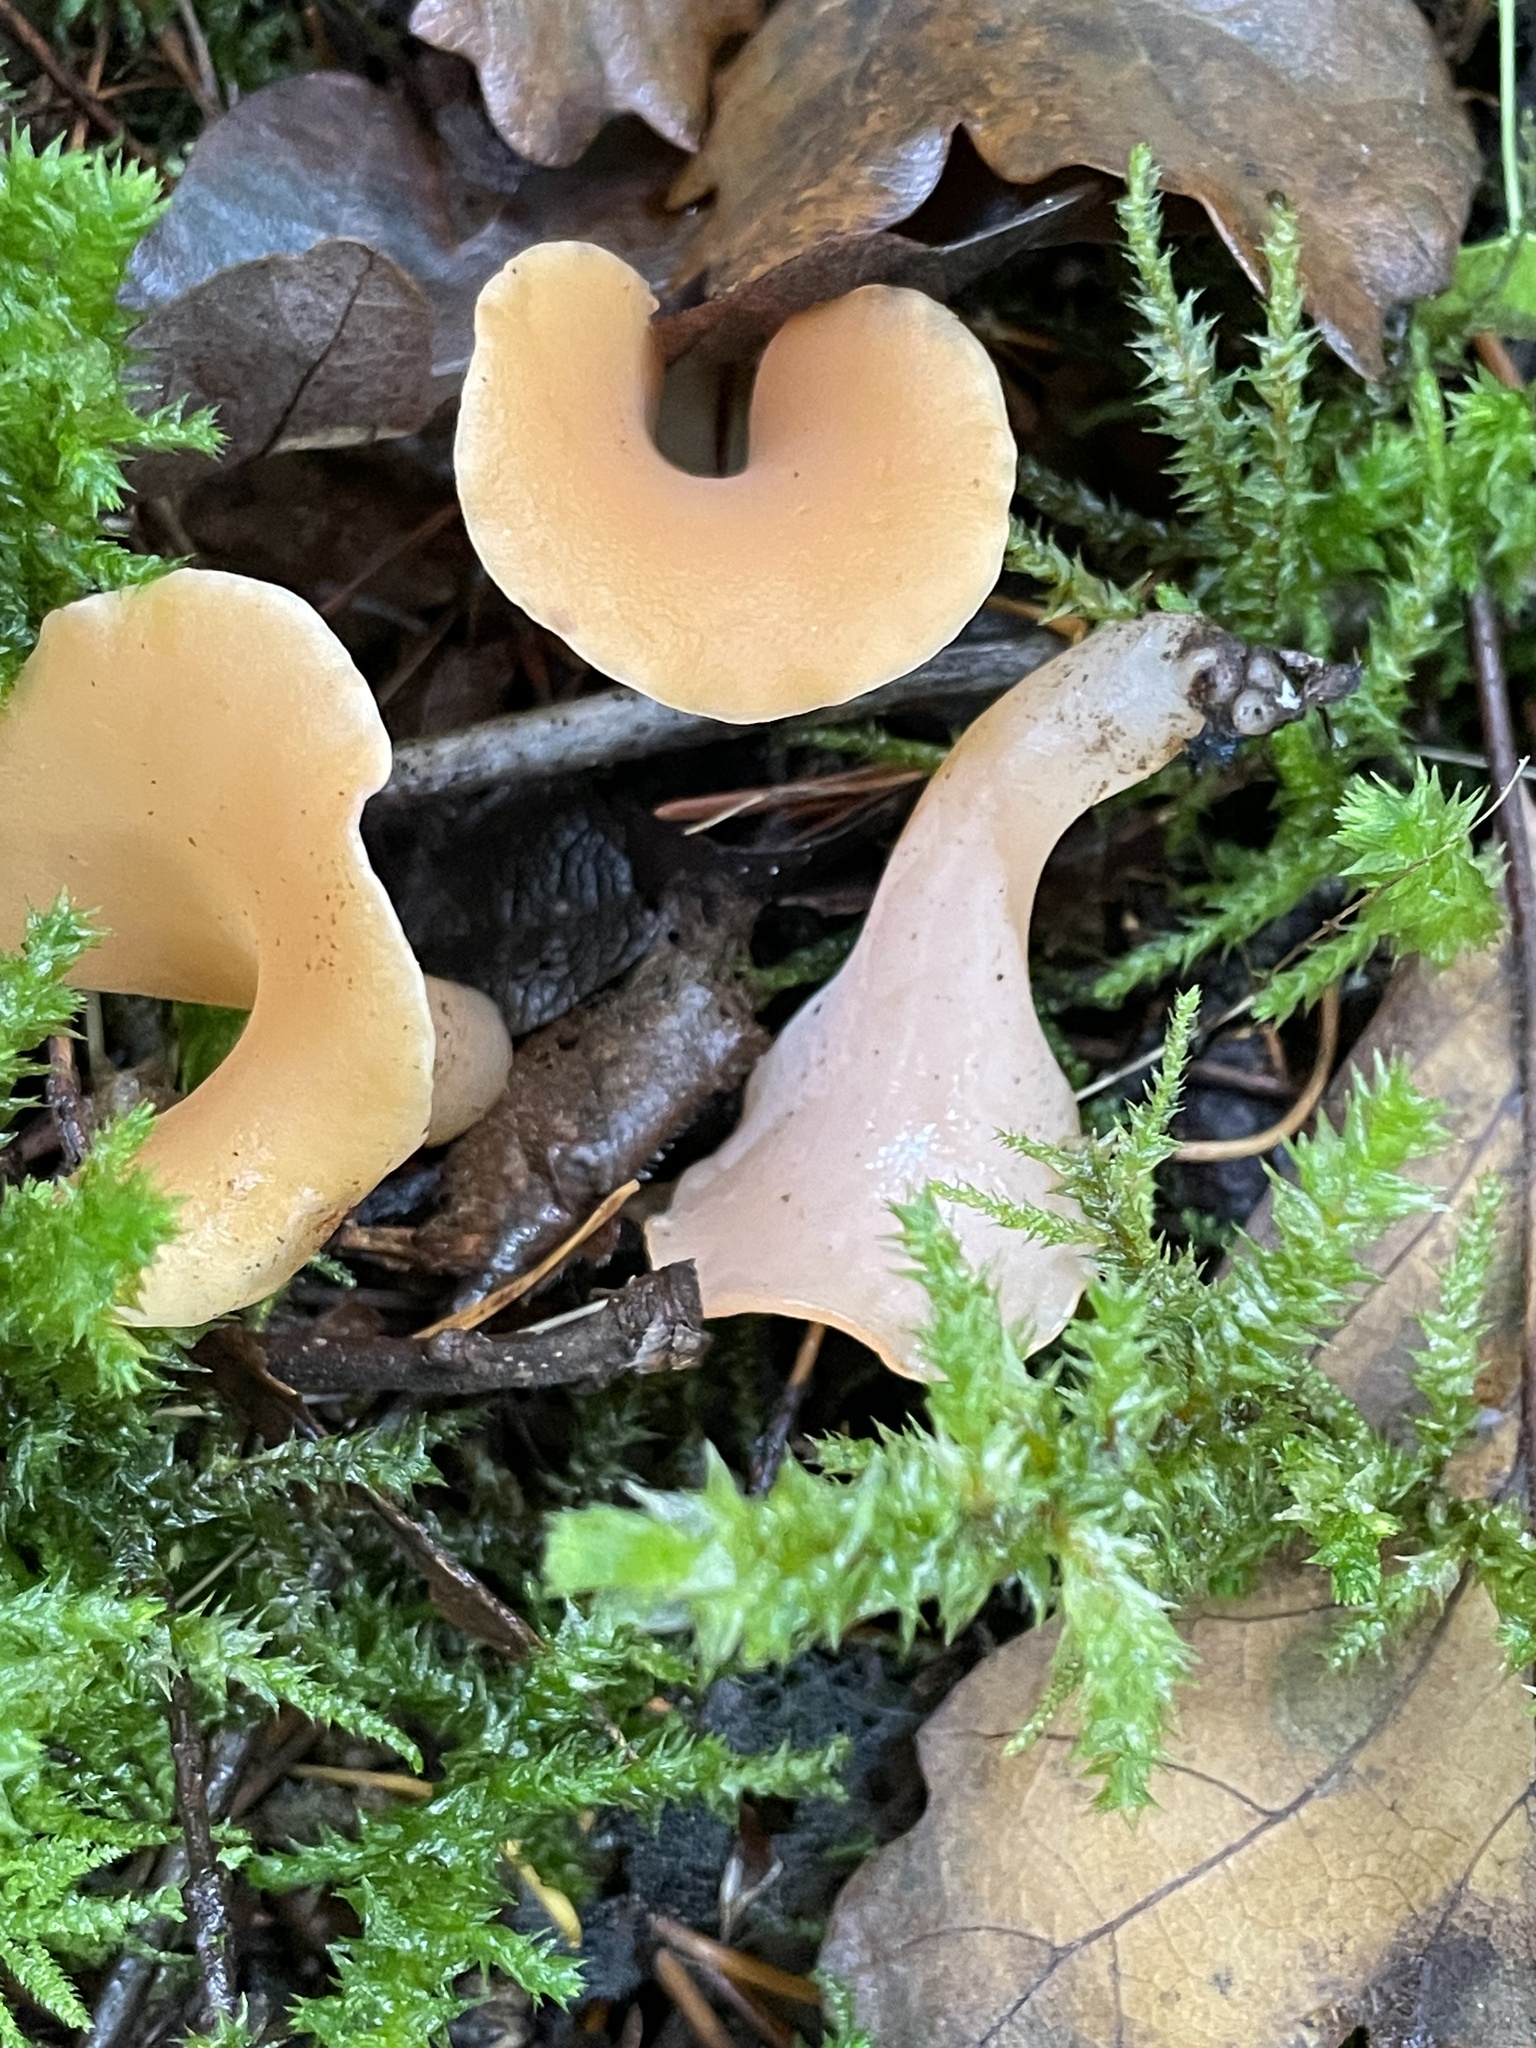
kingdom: Fungi
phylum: Basidiomycota
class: Agaricomycetes
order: Auriculariales
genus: Guepinia
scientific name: Guepinia helvelloides
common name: Salmon salad
